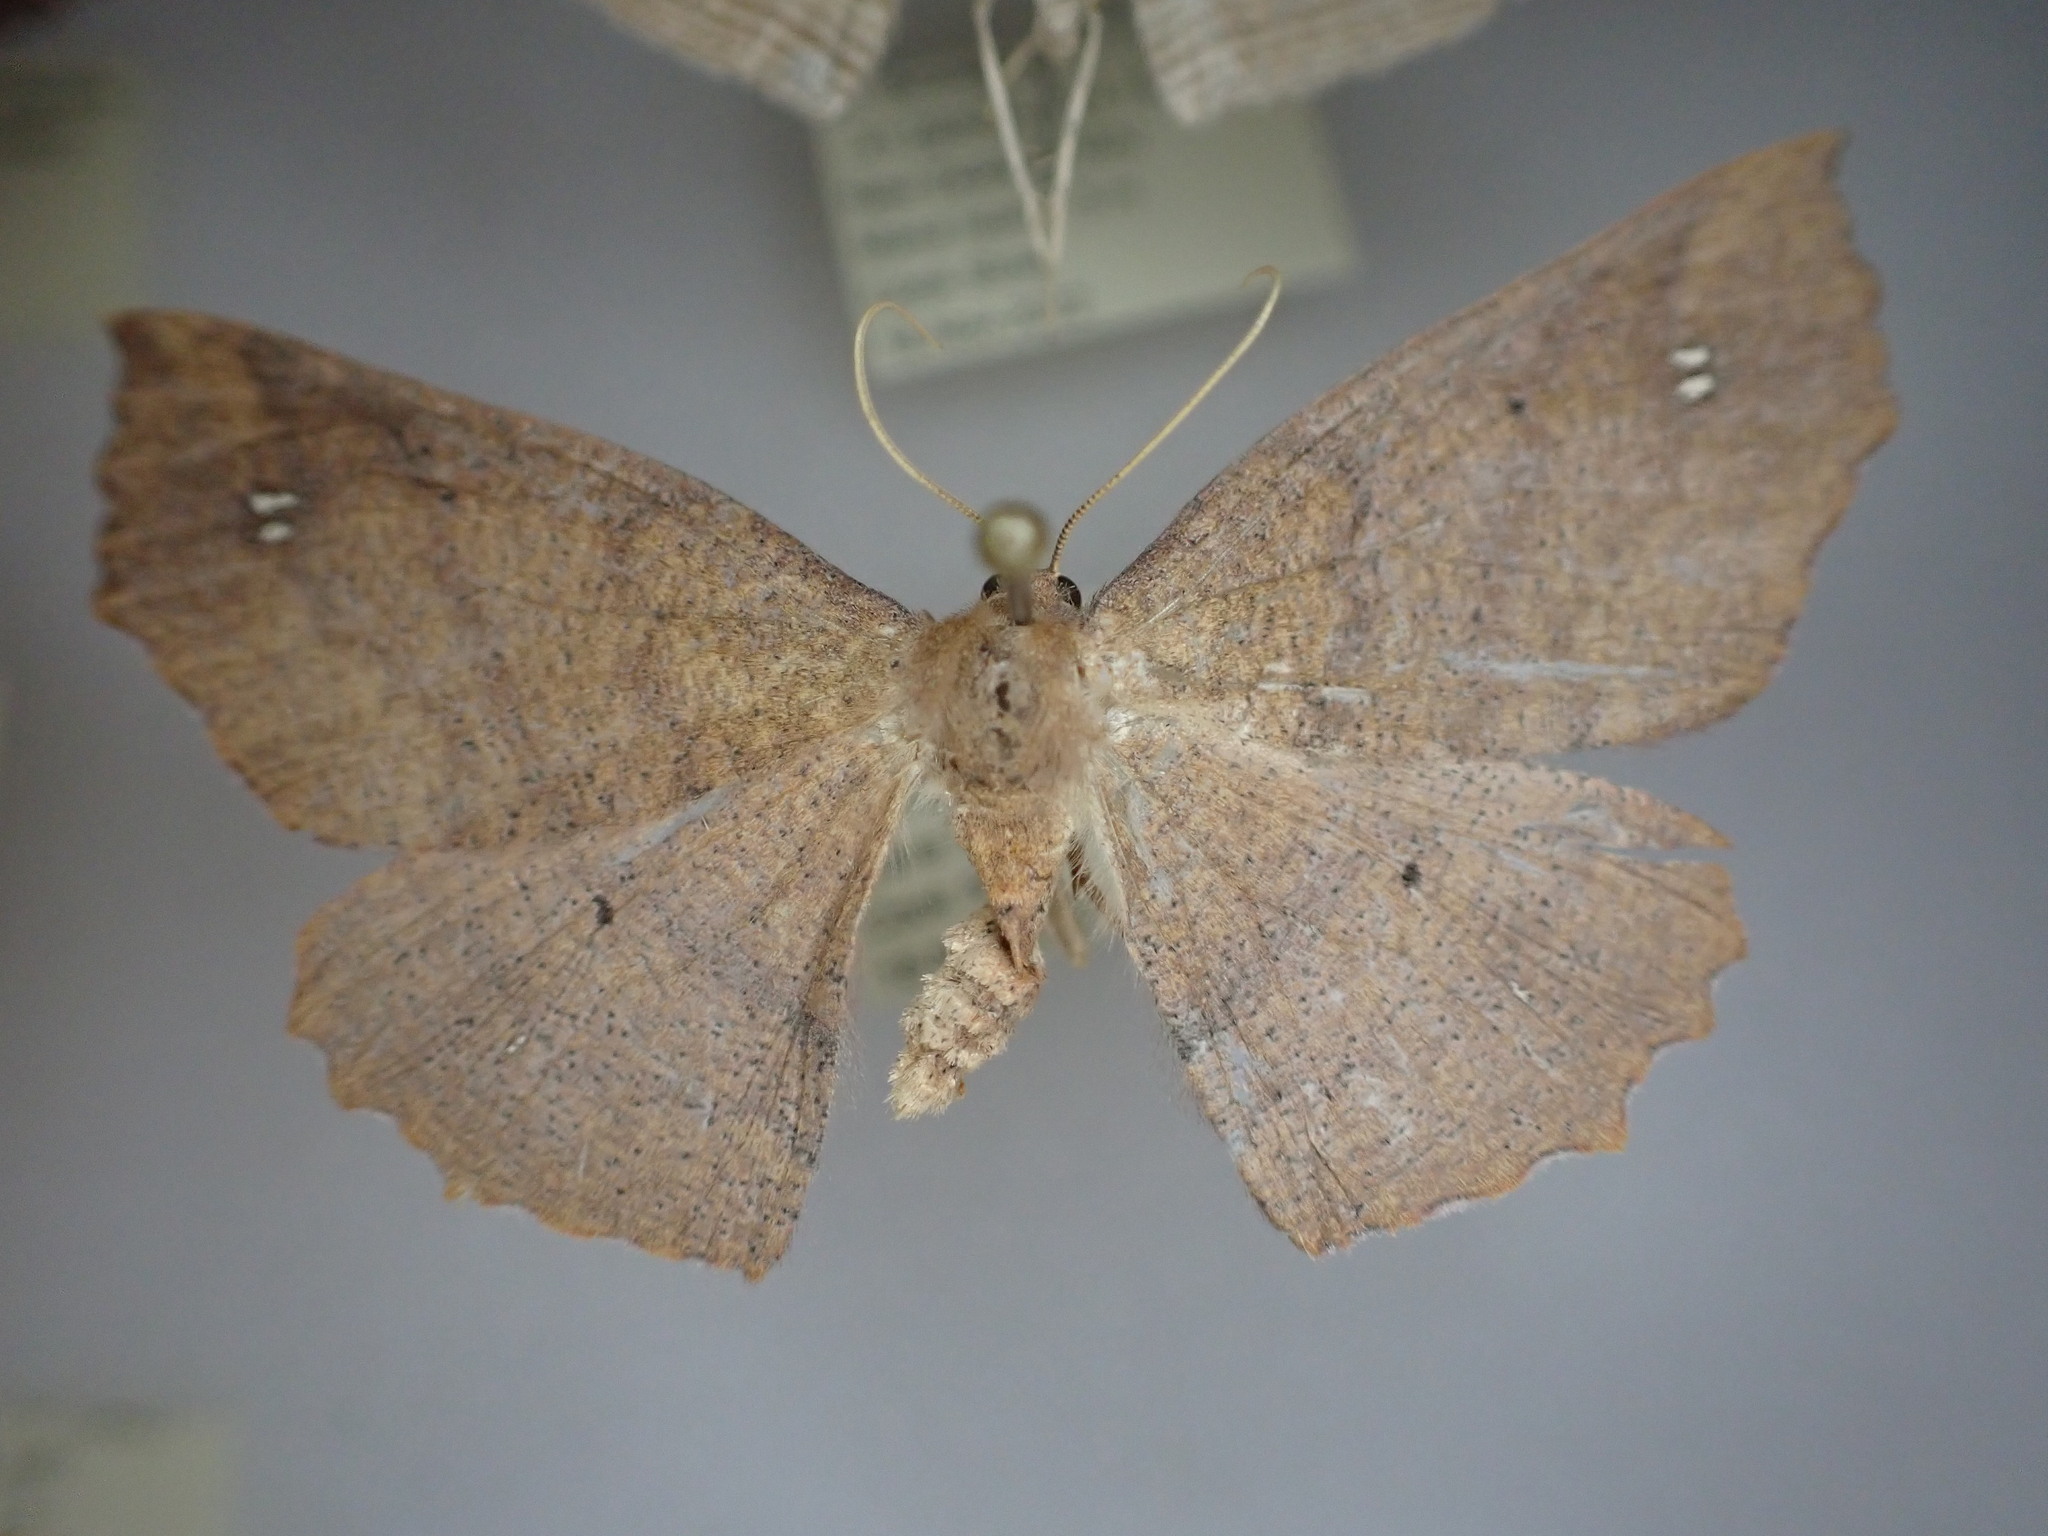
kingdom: Animalia
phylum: Arthropoda
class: Insecta
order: Lepidoptera
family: Geometridae
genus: Xyridacma
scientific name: Xyridacma ustaria
